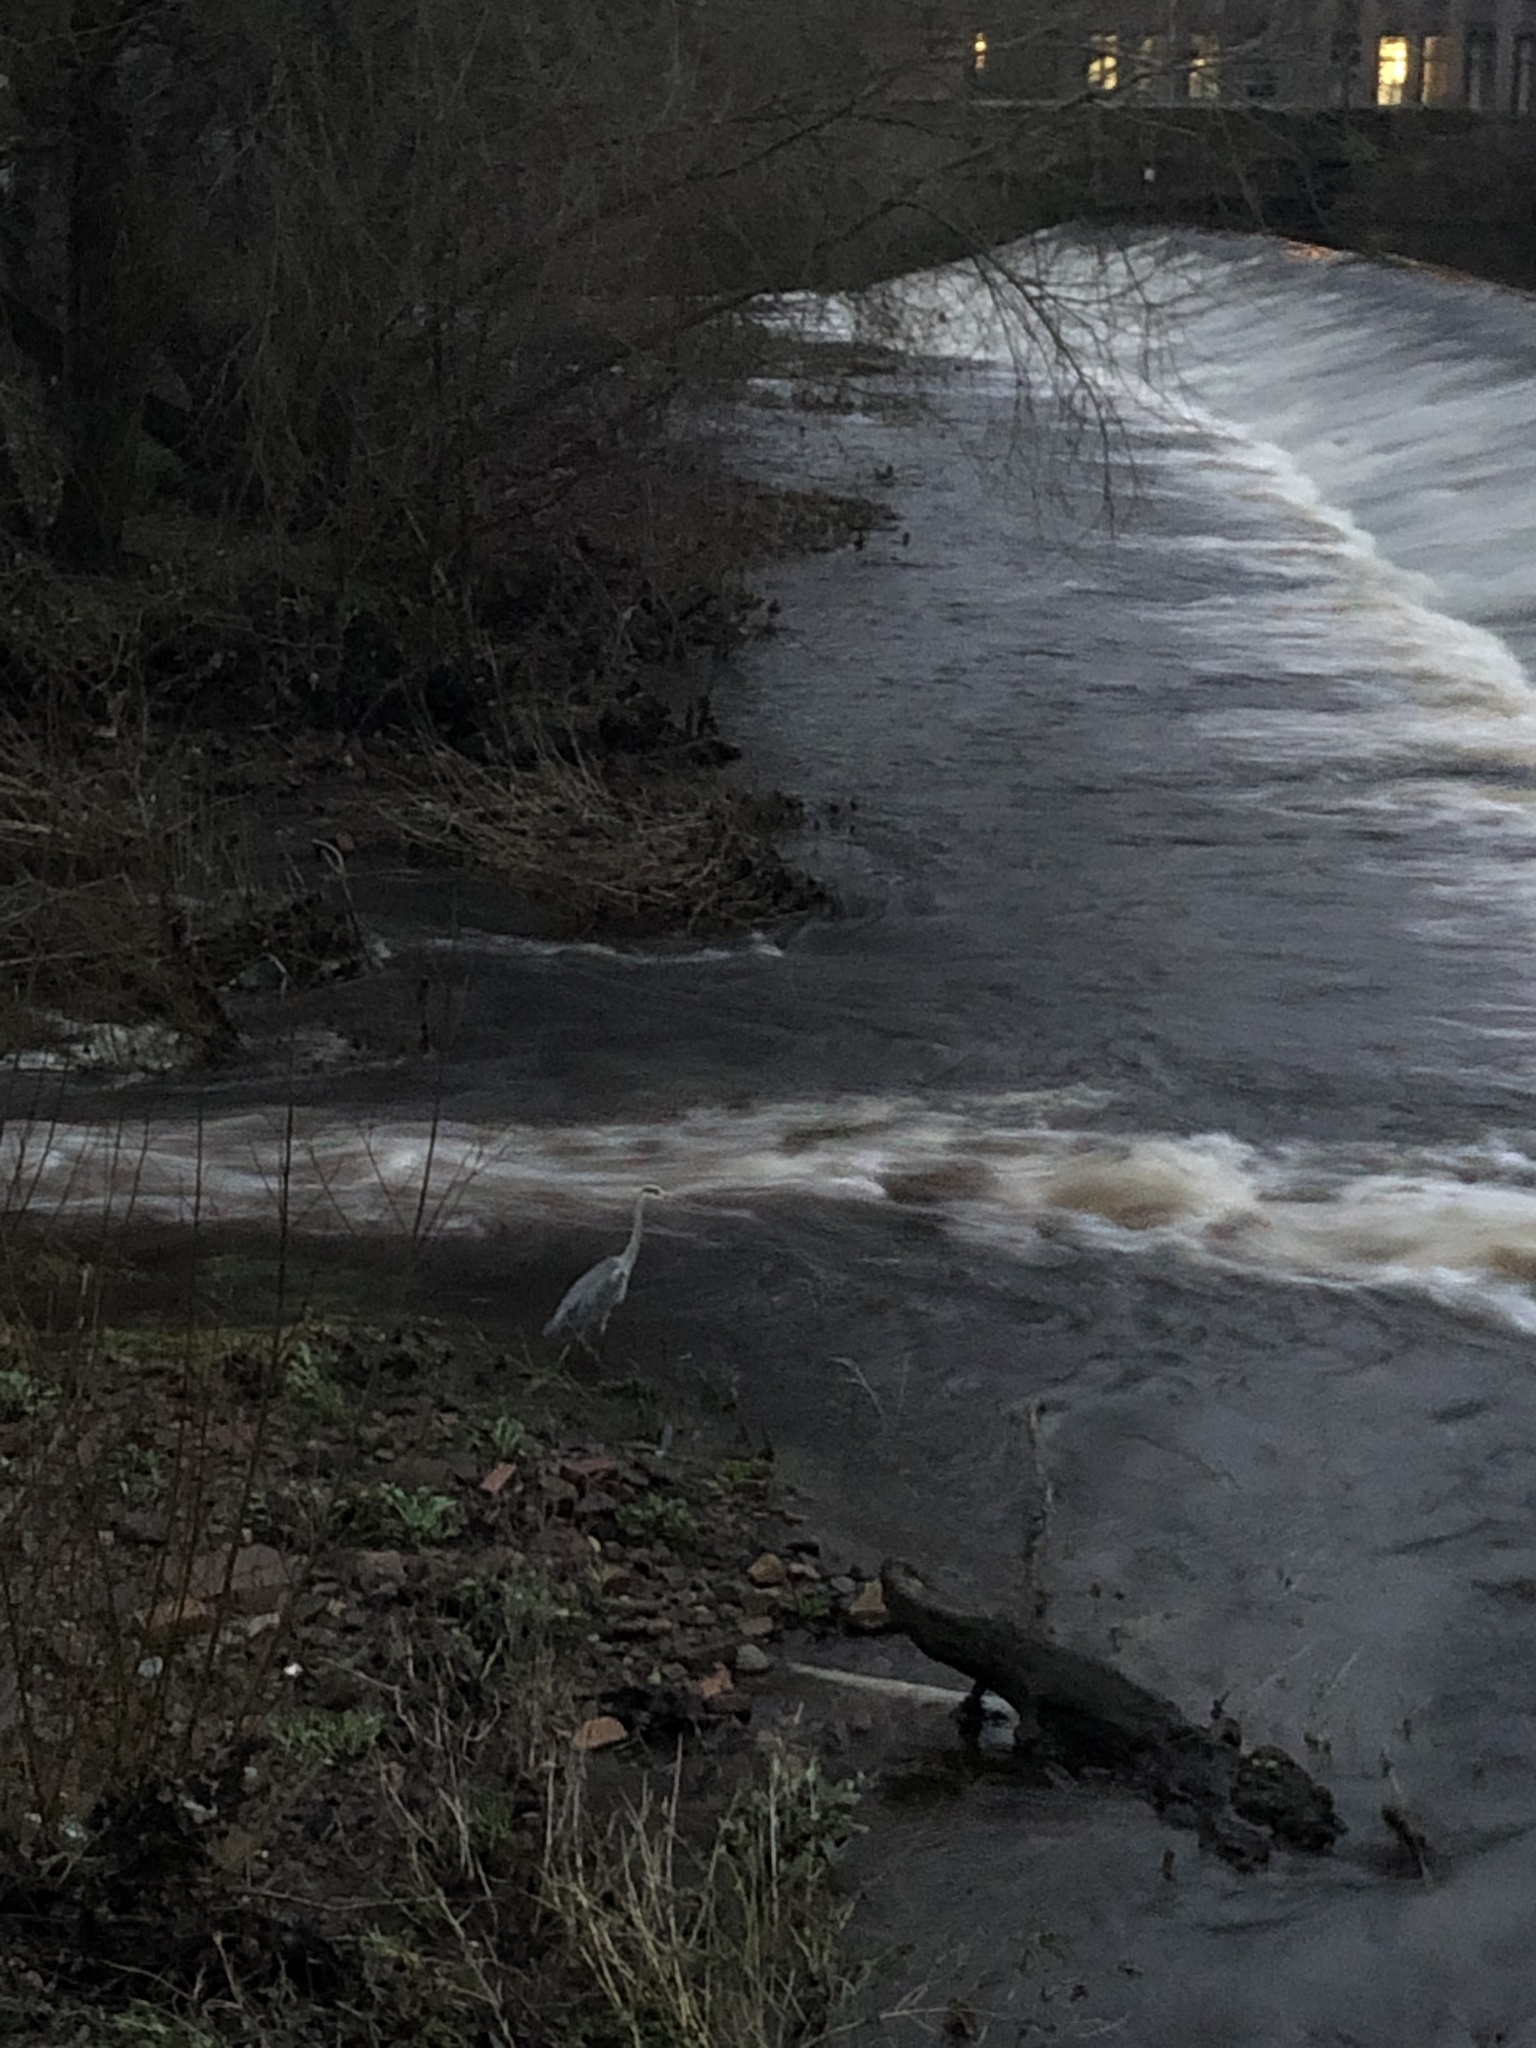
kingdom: Animalia
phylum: Chordata
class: Aves
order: Pelecaniformes
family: Ardeidae
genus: Ardea
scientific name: Ardea cinerea
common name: Grey heron
